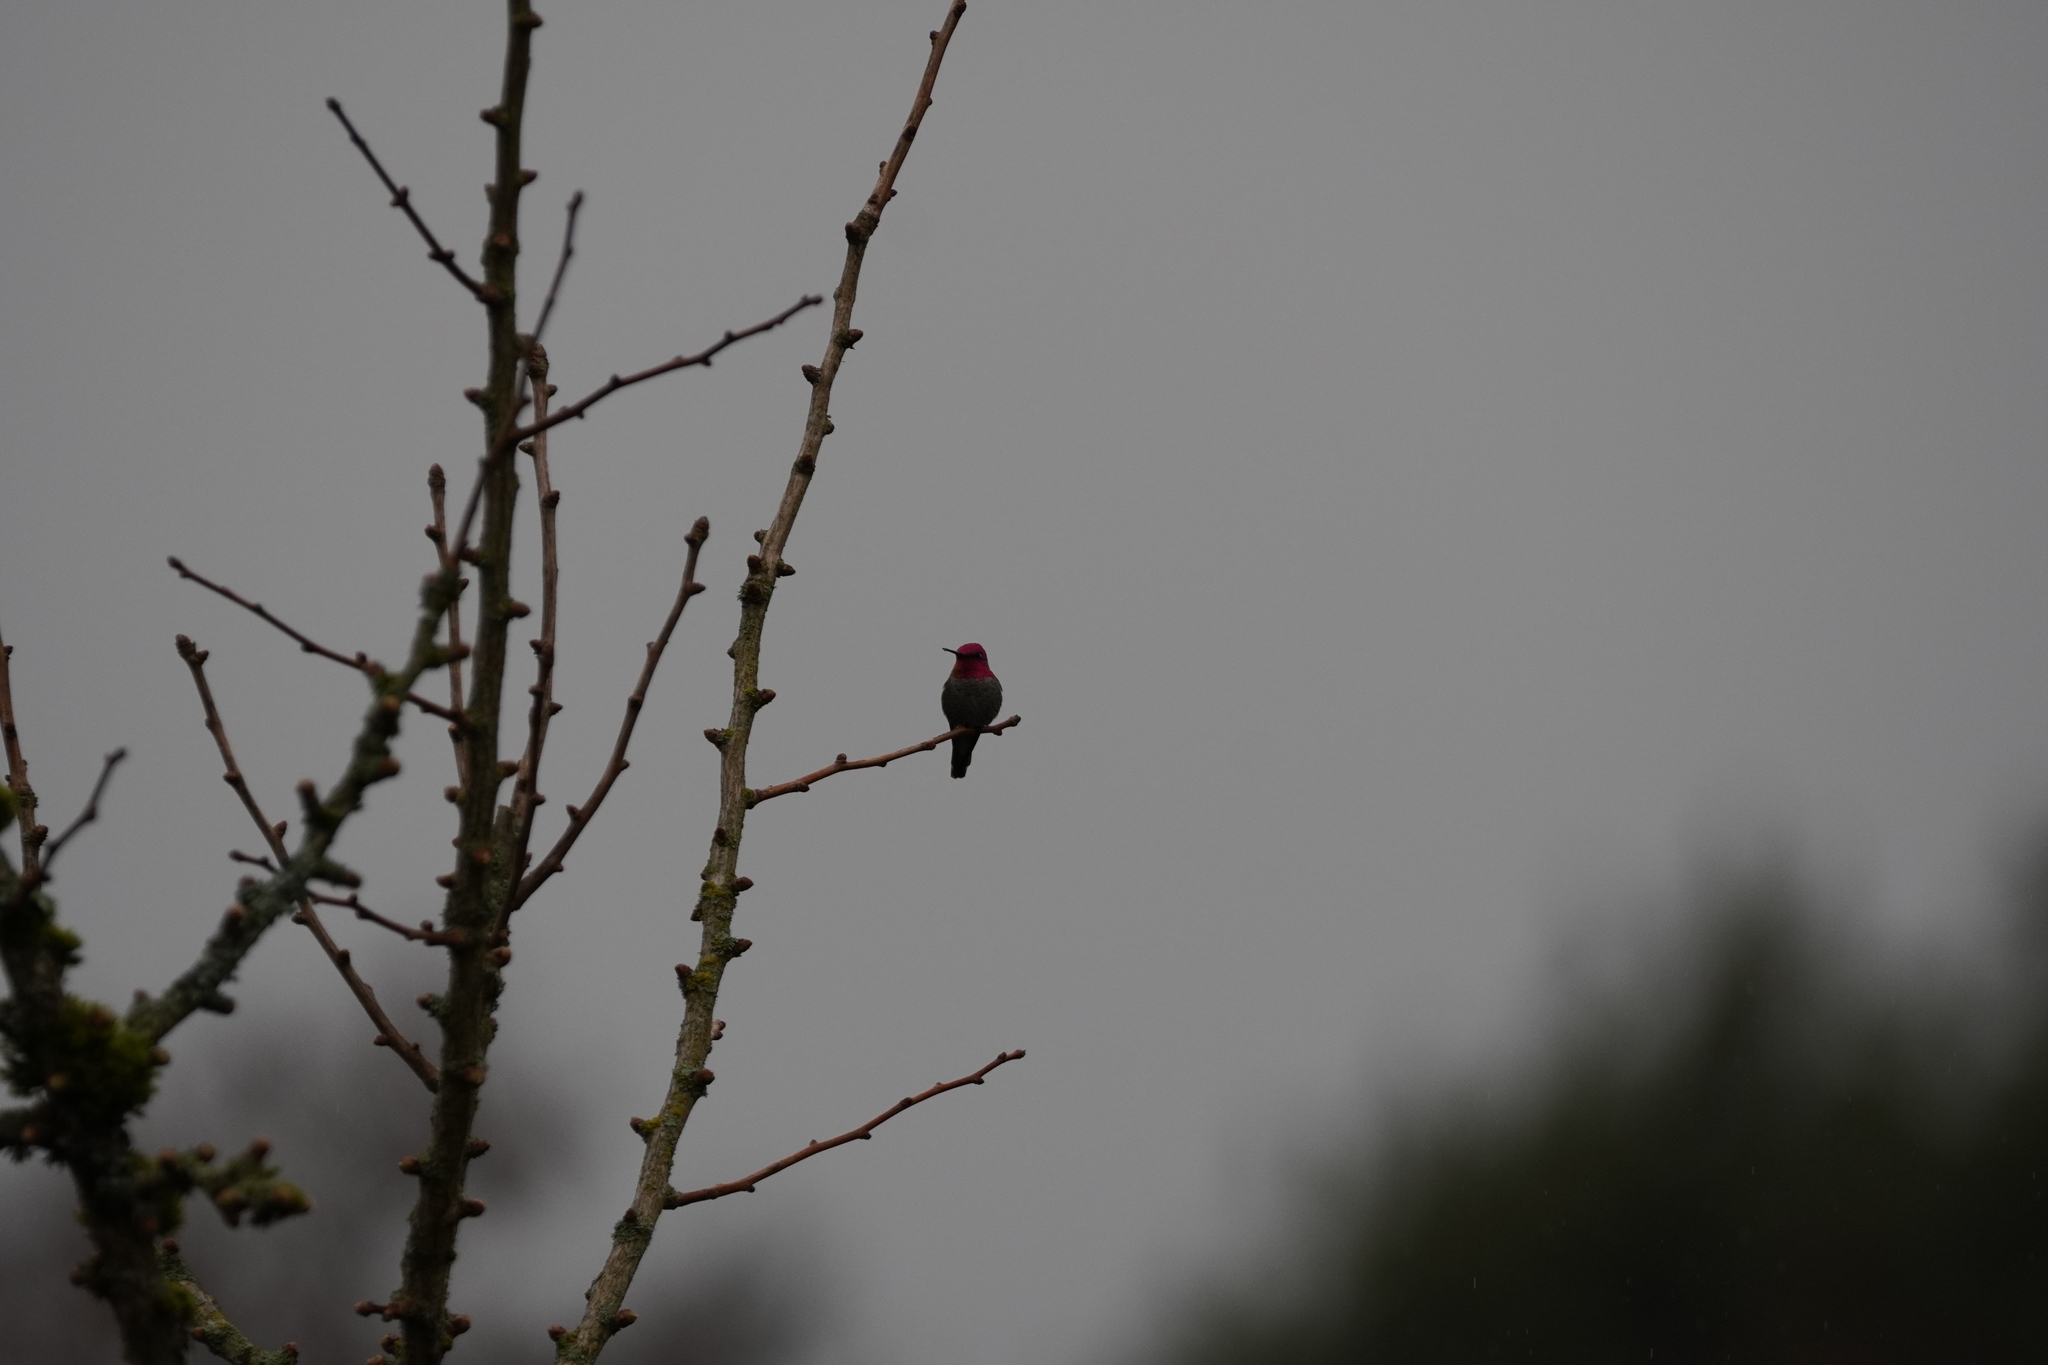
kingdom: Animalia
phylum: Chordata
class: Aves
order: Apodiformes
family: Trochilidae
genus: Calypte
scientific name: Calypte anna
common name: Anna's hummingbird
